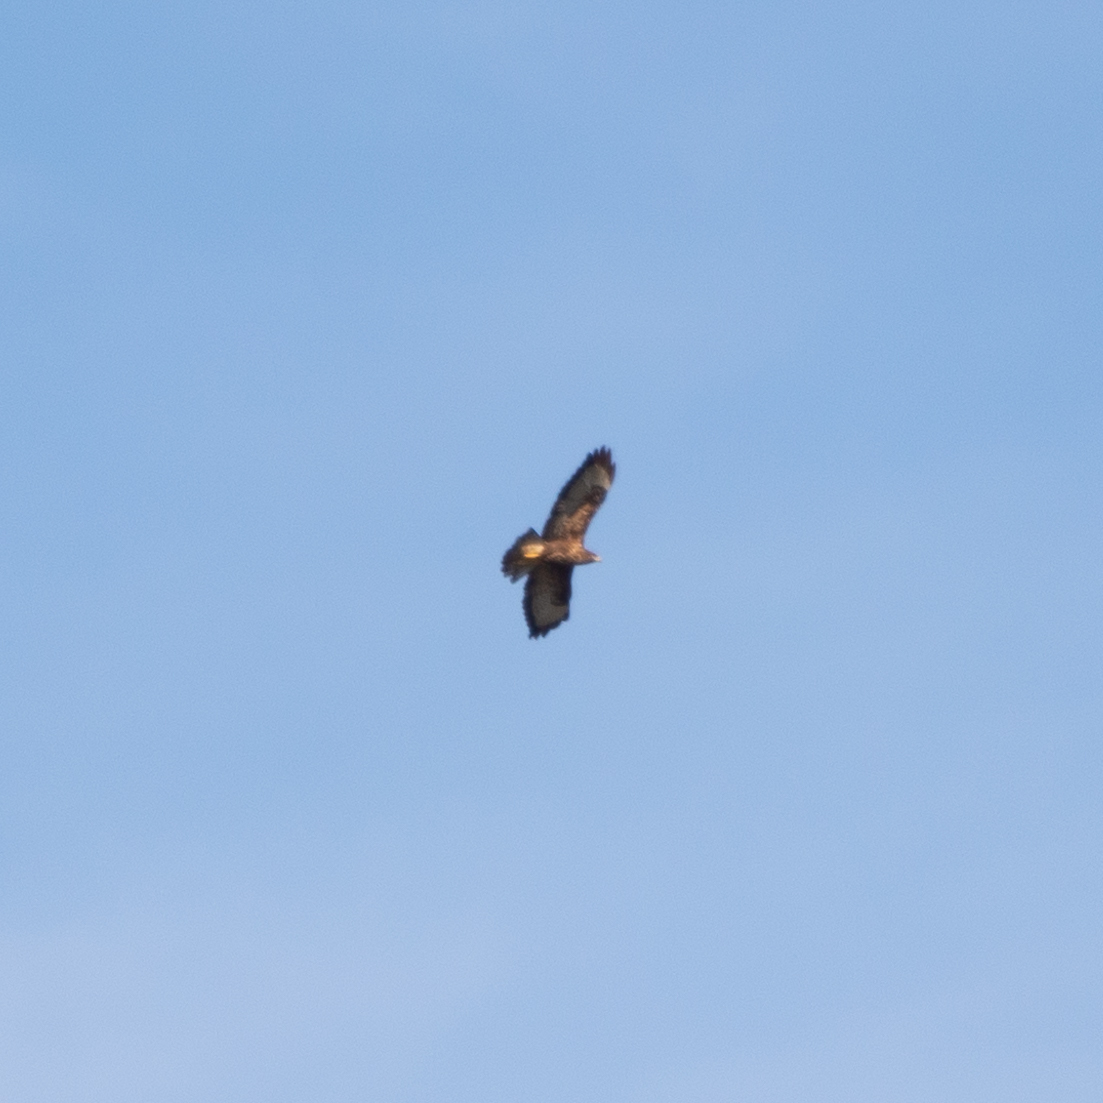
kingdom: Animalia
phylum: Chordata
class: Aves
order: Accipitriformes
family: Accipitridae
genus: Buteo
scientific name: Buteo buteo
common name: Common buzzard
